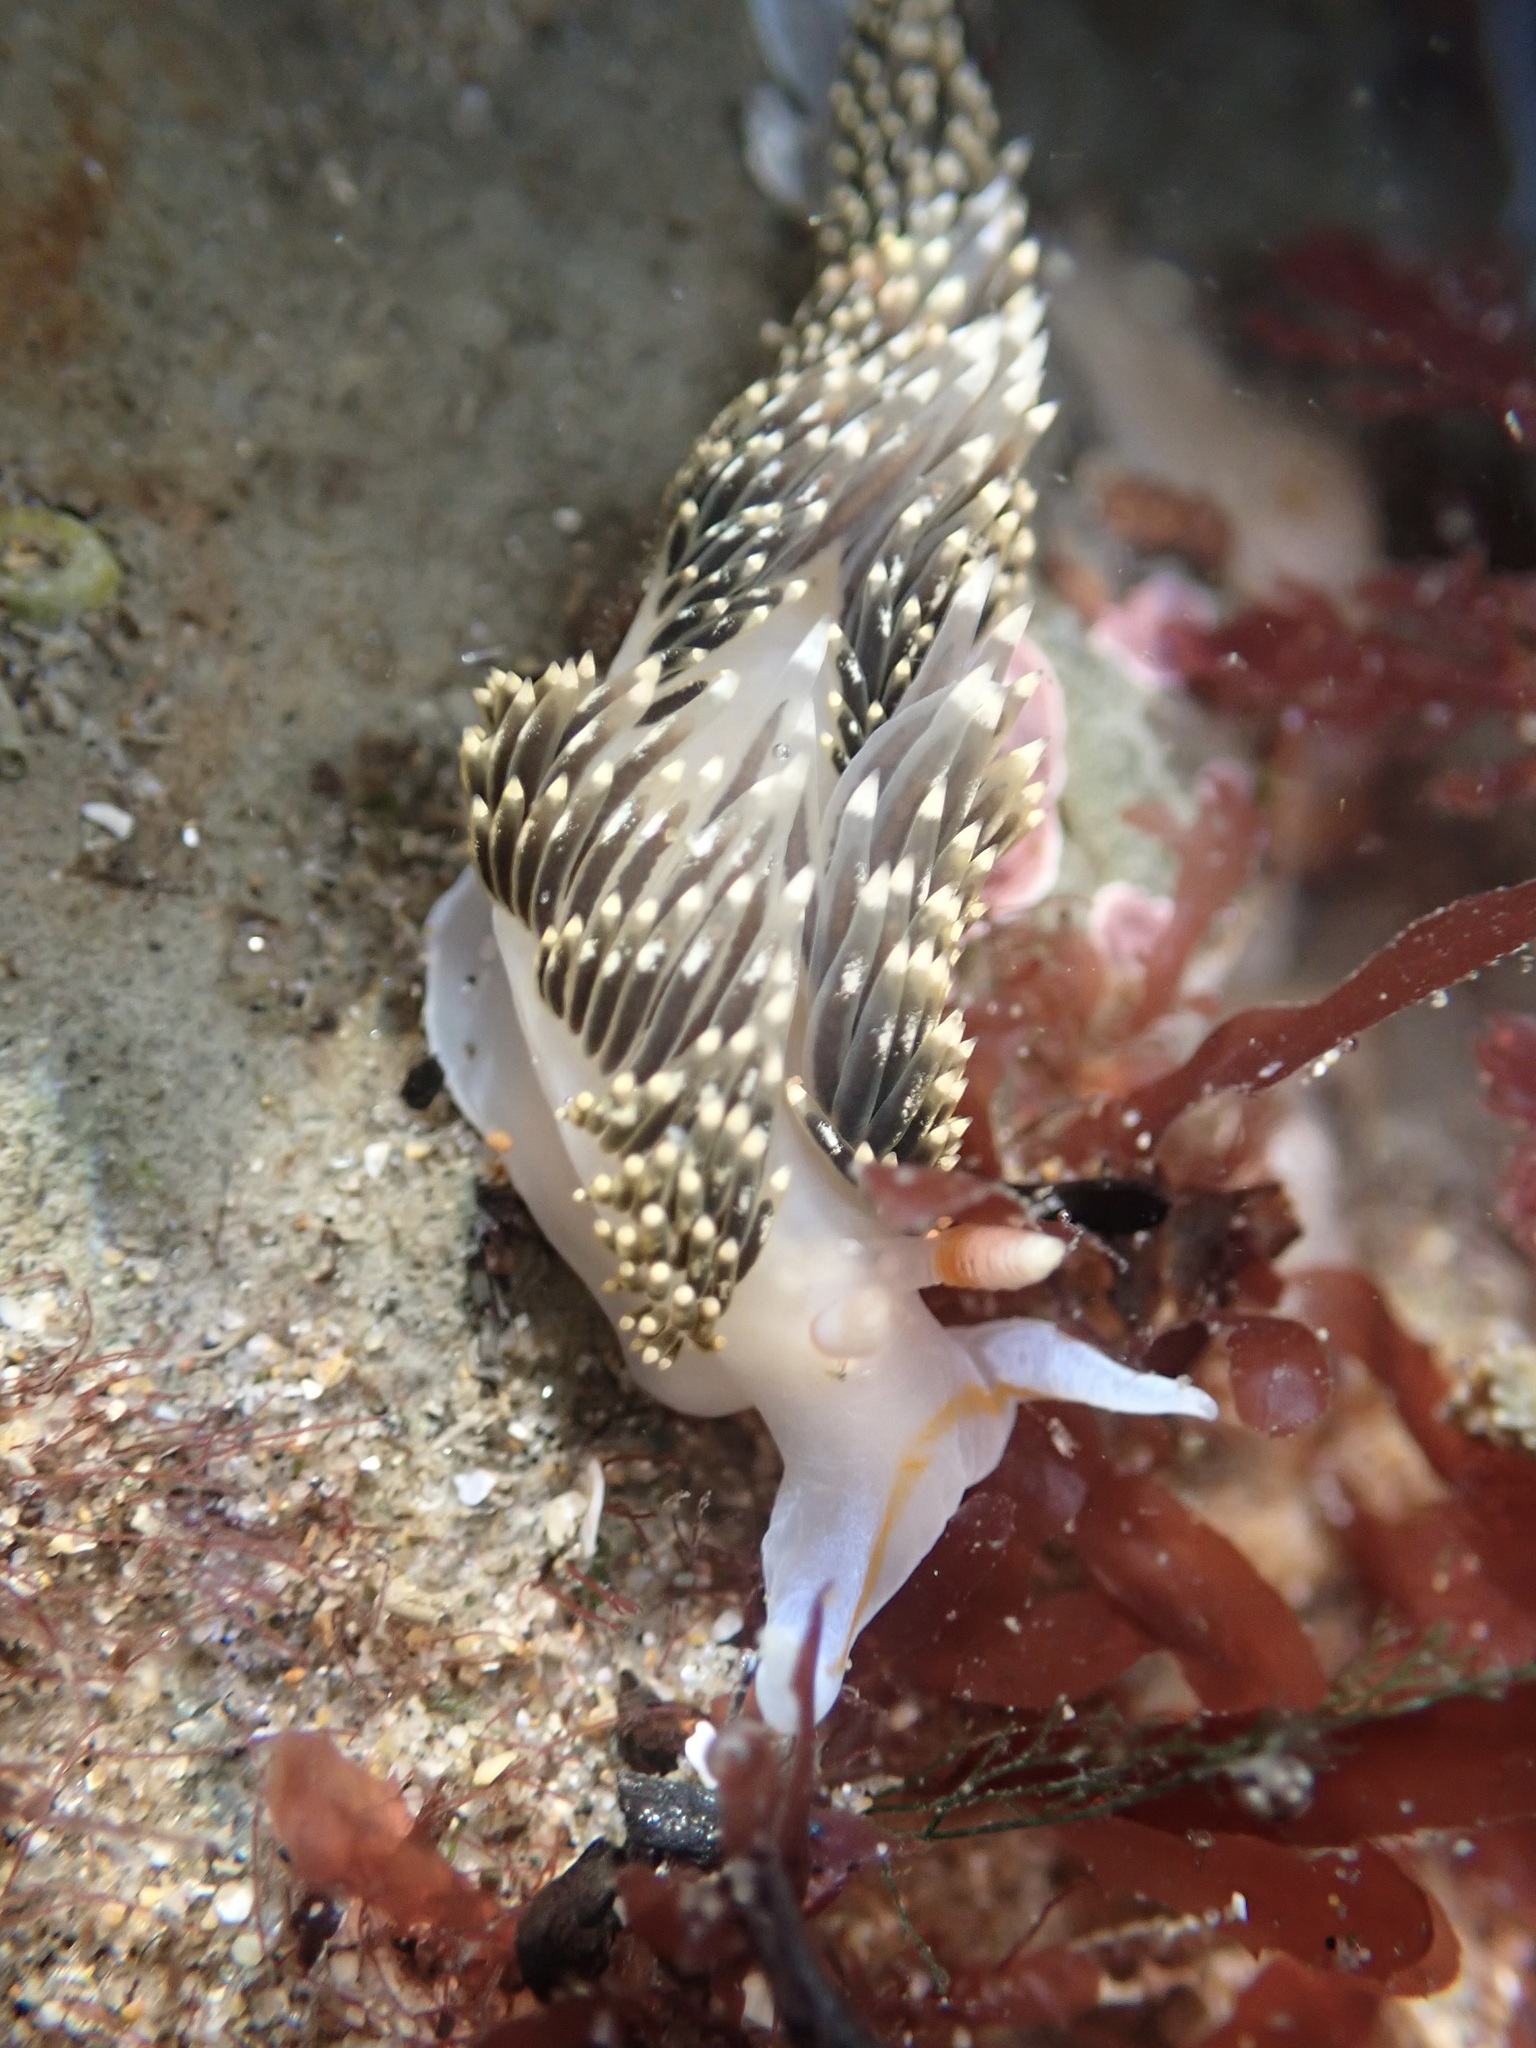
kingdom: Animalia
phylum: Mollusca
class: Gastropoda
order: Nudibranchia
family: Facelinidae
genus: Phidiana
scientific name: Phidiana hiltoni
